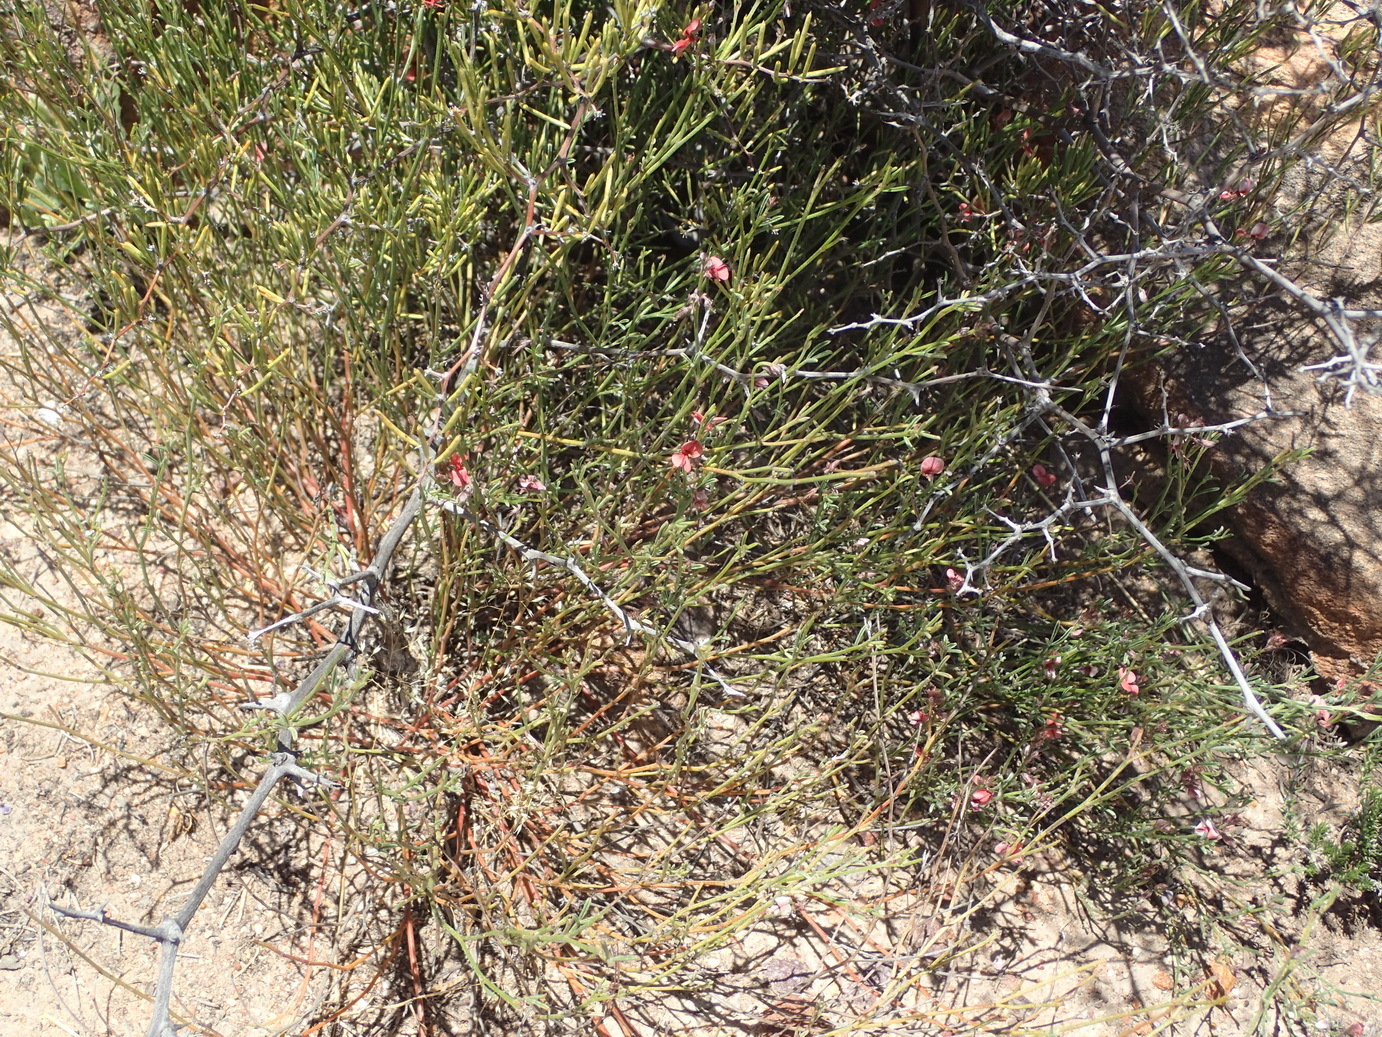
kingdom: Plantae
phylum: Tracheophyta
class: Magnoliopsida
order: Fabales
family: Fabaceae
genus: Indigofera
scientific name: Indigofera leptocarpa
